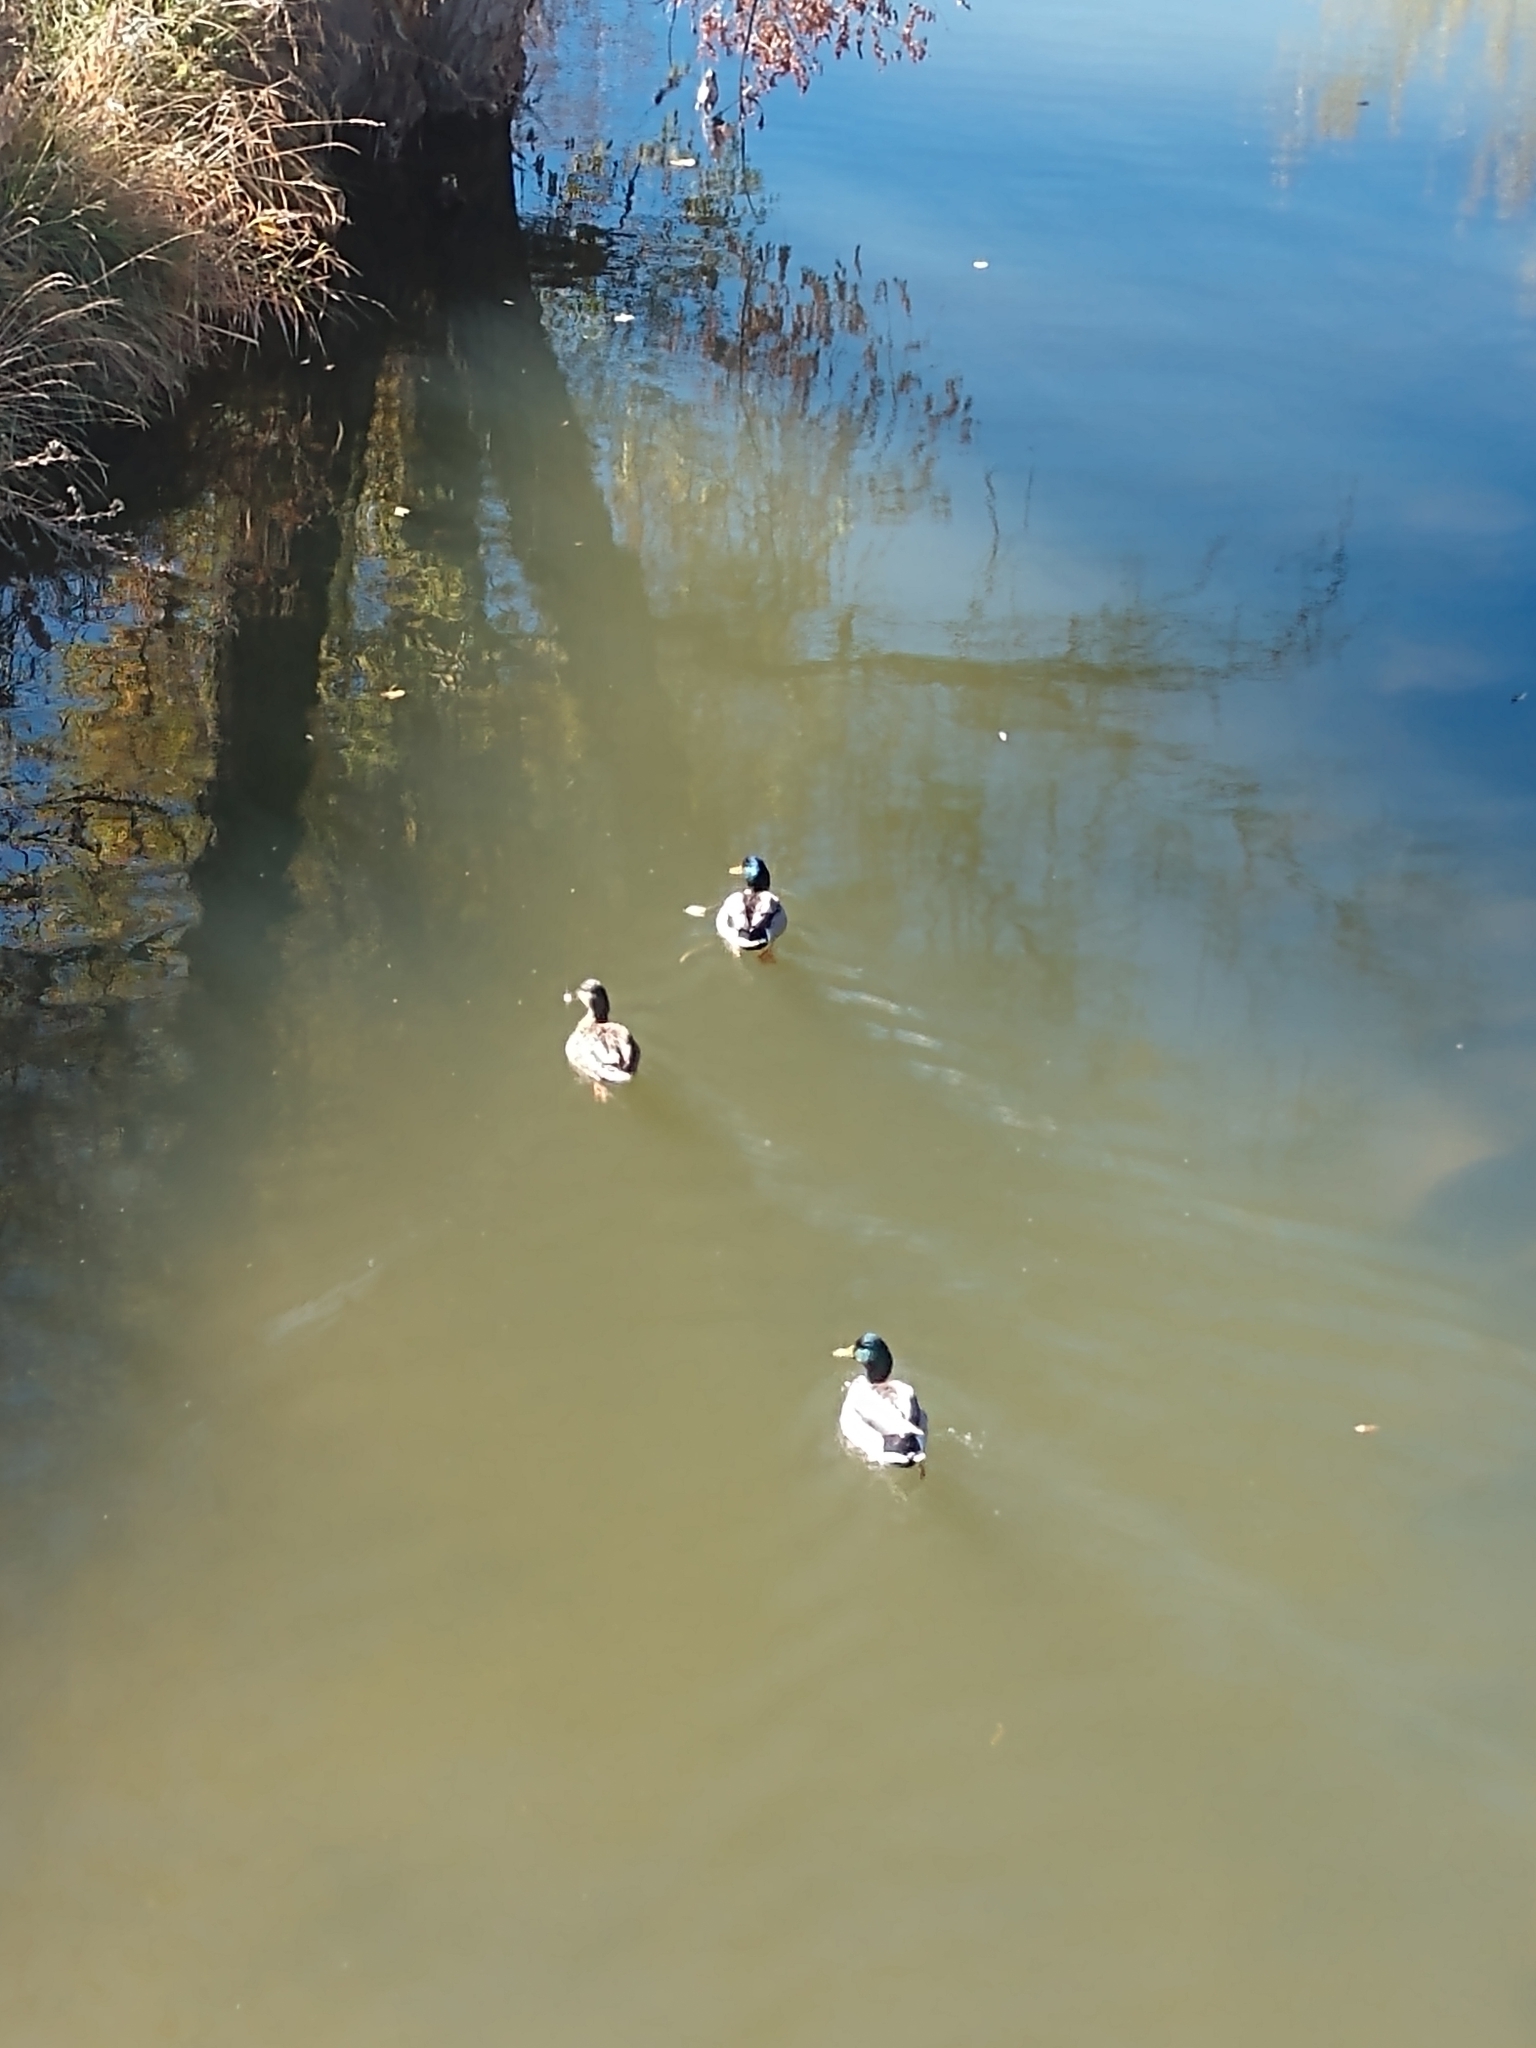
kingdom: Animalia
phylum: Chordata
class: Aves
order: Anseriformes
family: Anatidae
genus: Anas
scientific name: Anas platyrhynchos
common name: Mallard
